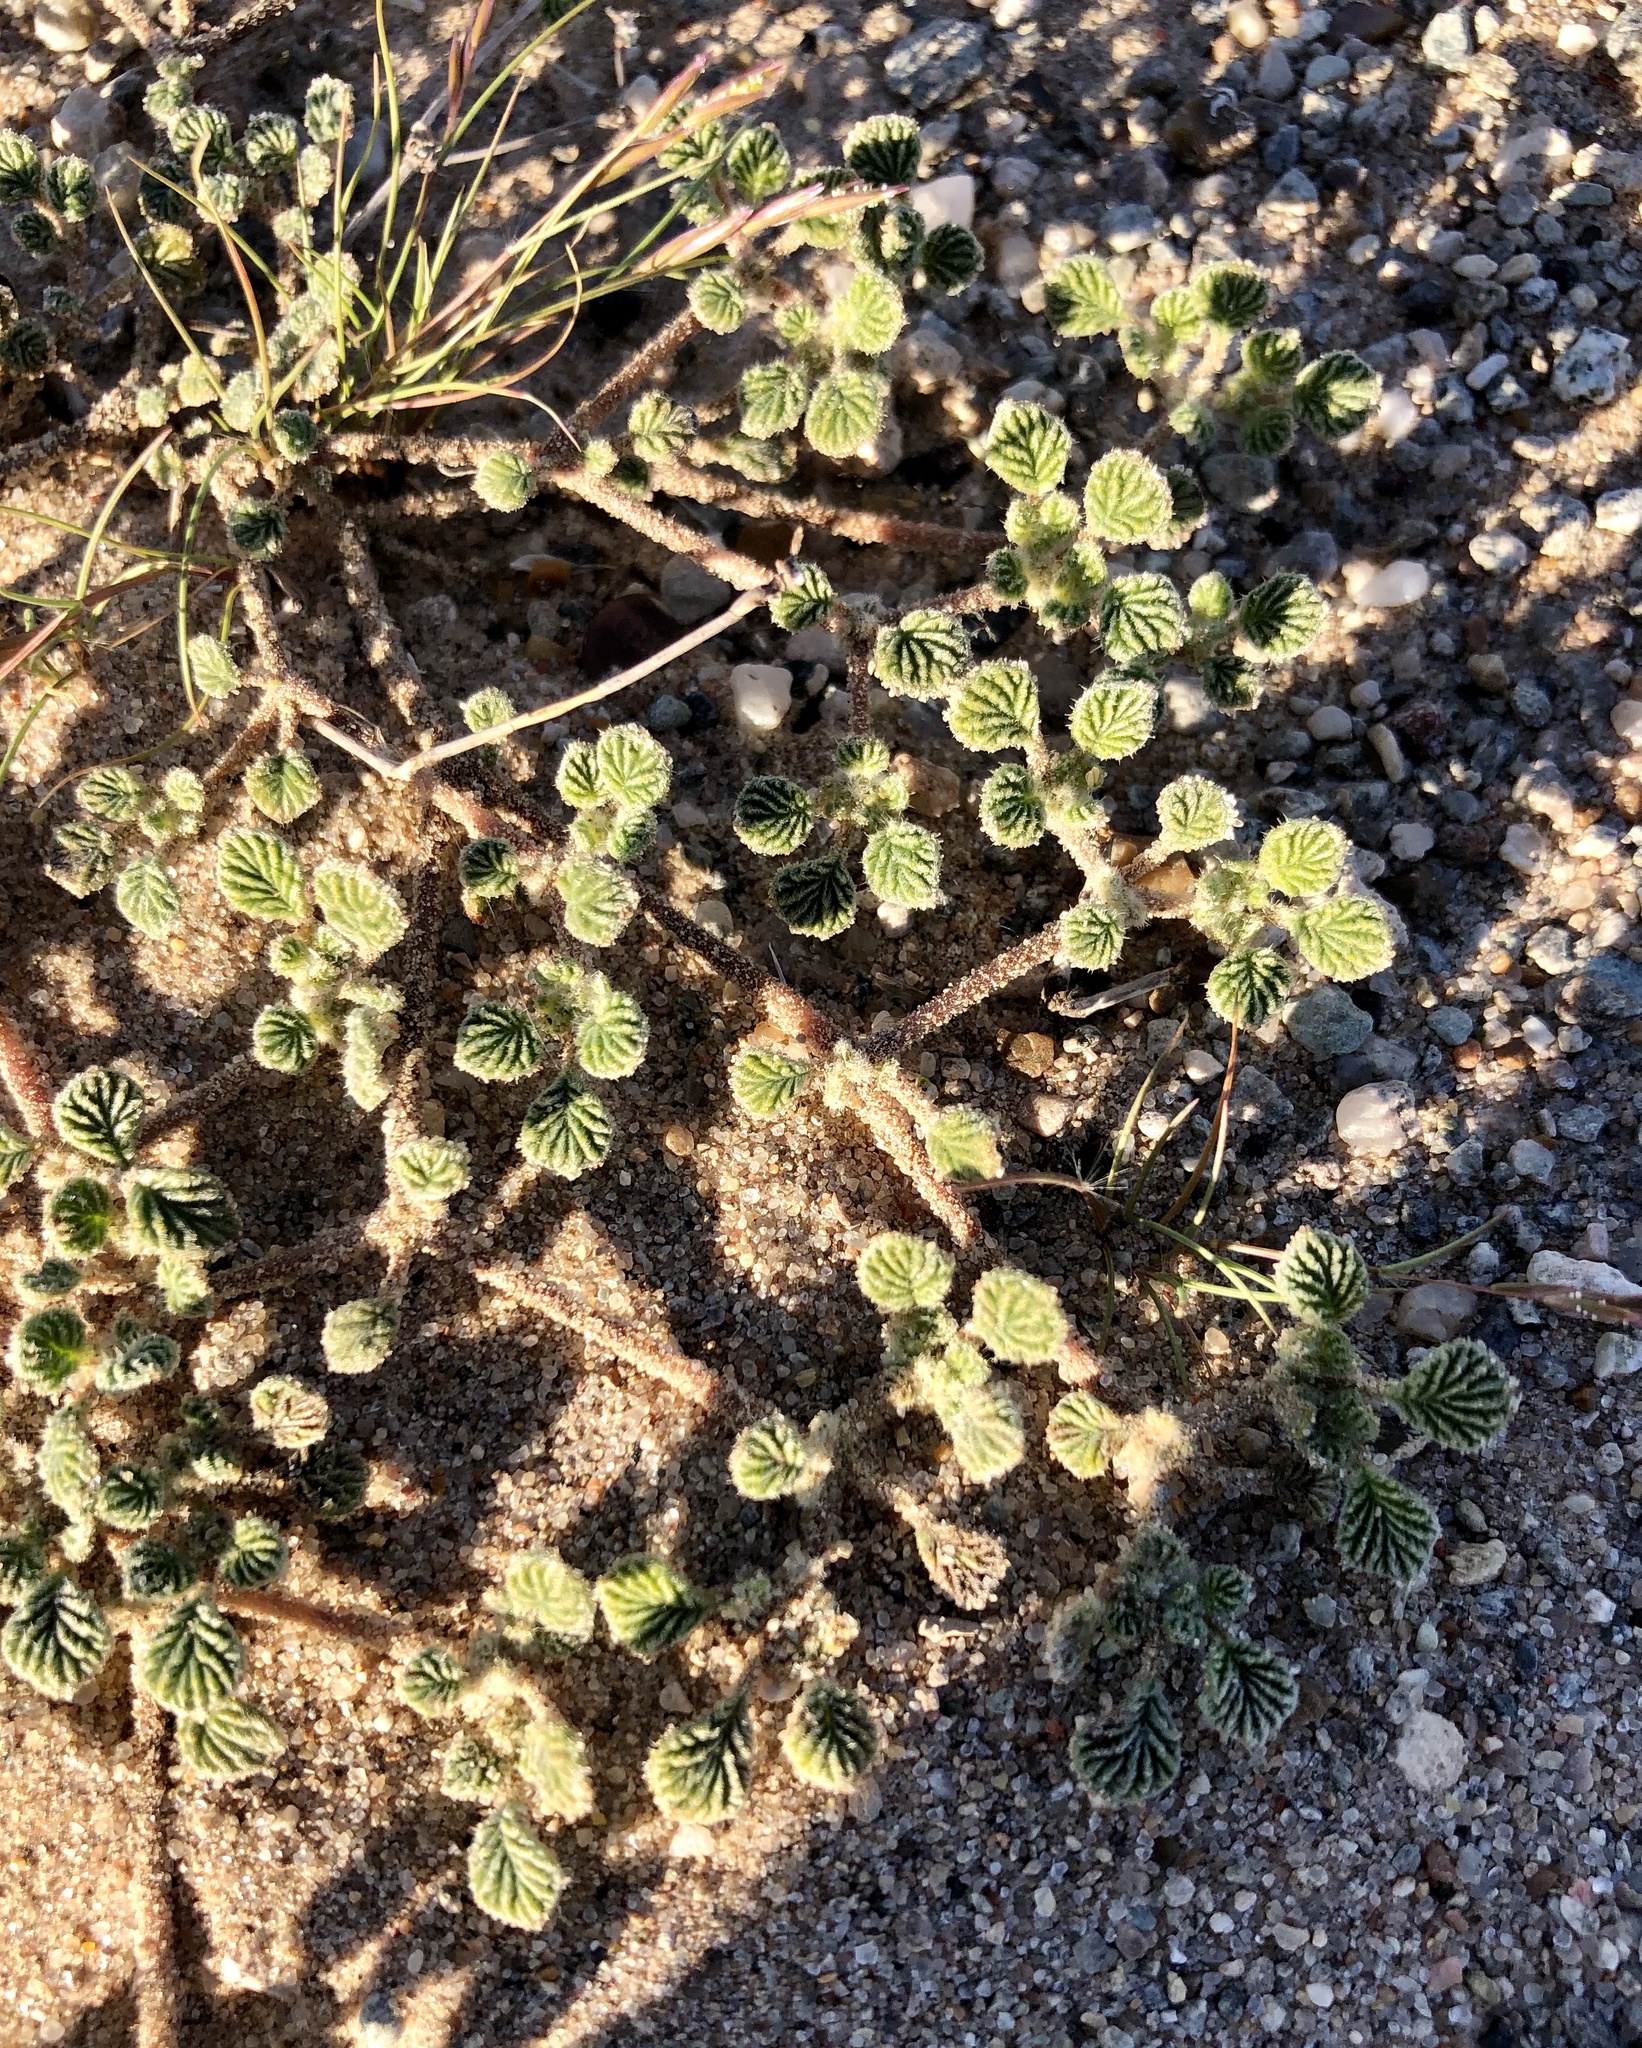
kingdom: Plantae
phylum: Tracheophyta
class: Magnoliopsida
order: Boraginales
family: Ehretiaceae
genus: Tiquilia
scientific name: Tiquilia plicata
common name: Fan-leaf tiquilia
